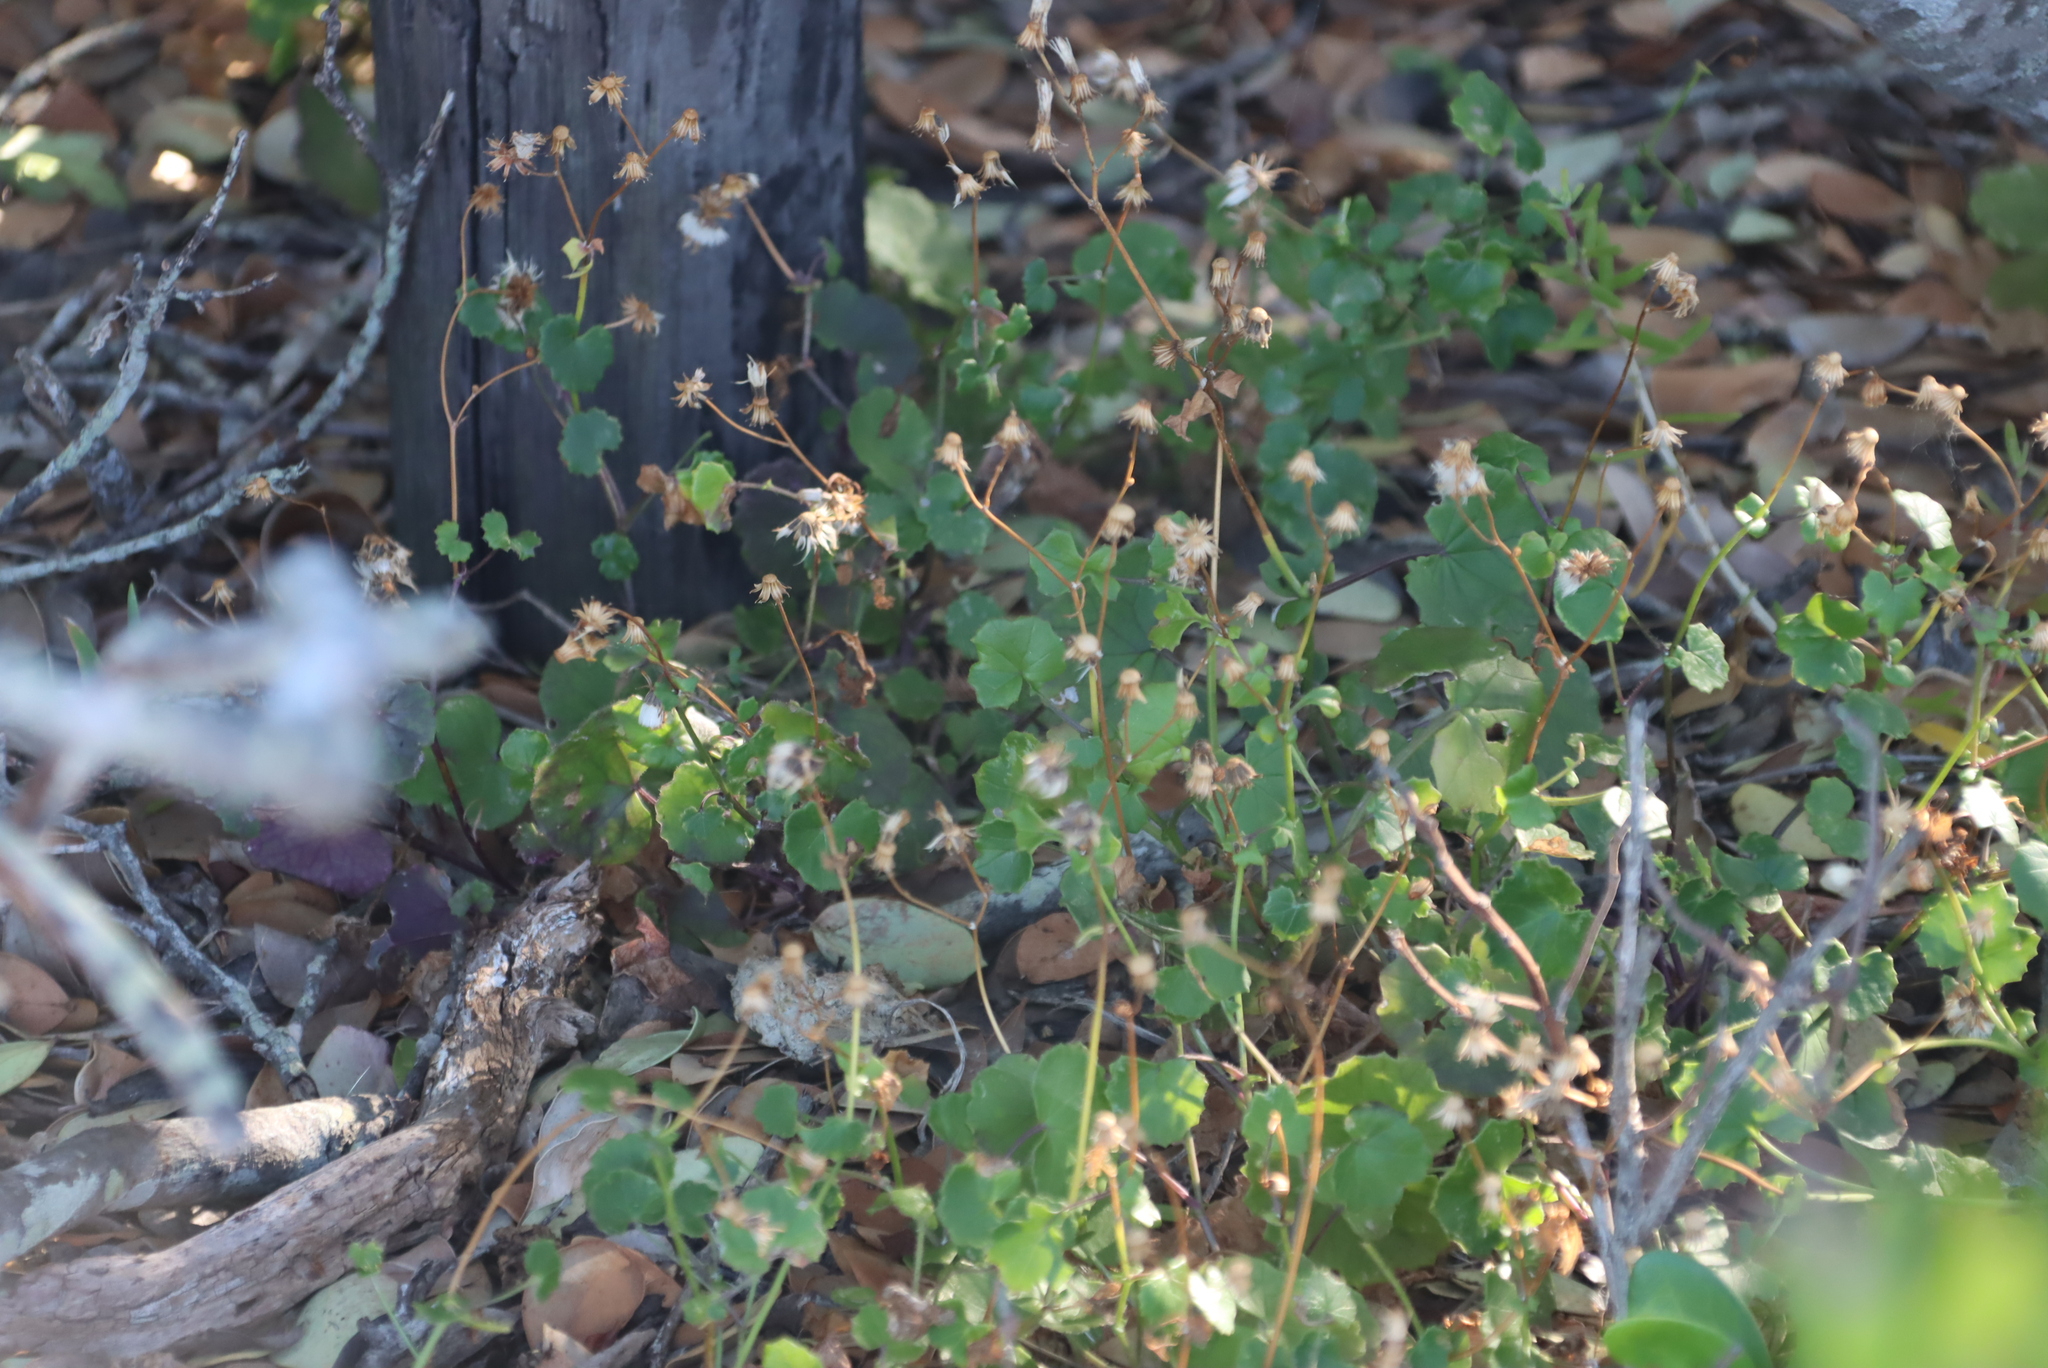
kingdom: Plantae
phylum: Tracheophyta
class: Magnoliopsida
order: Asterales
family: Asteraceae
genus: Cineraria
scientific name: Cineraria geifolia
